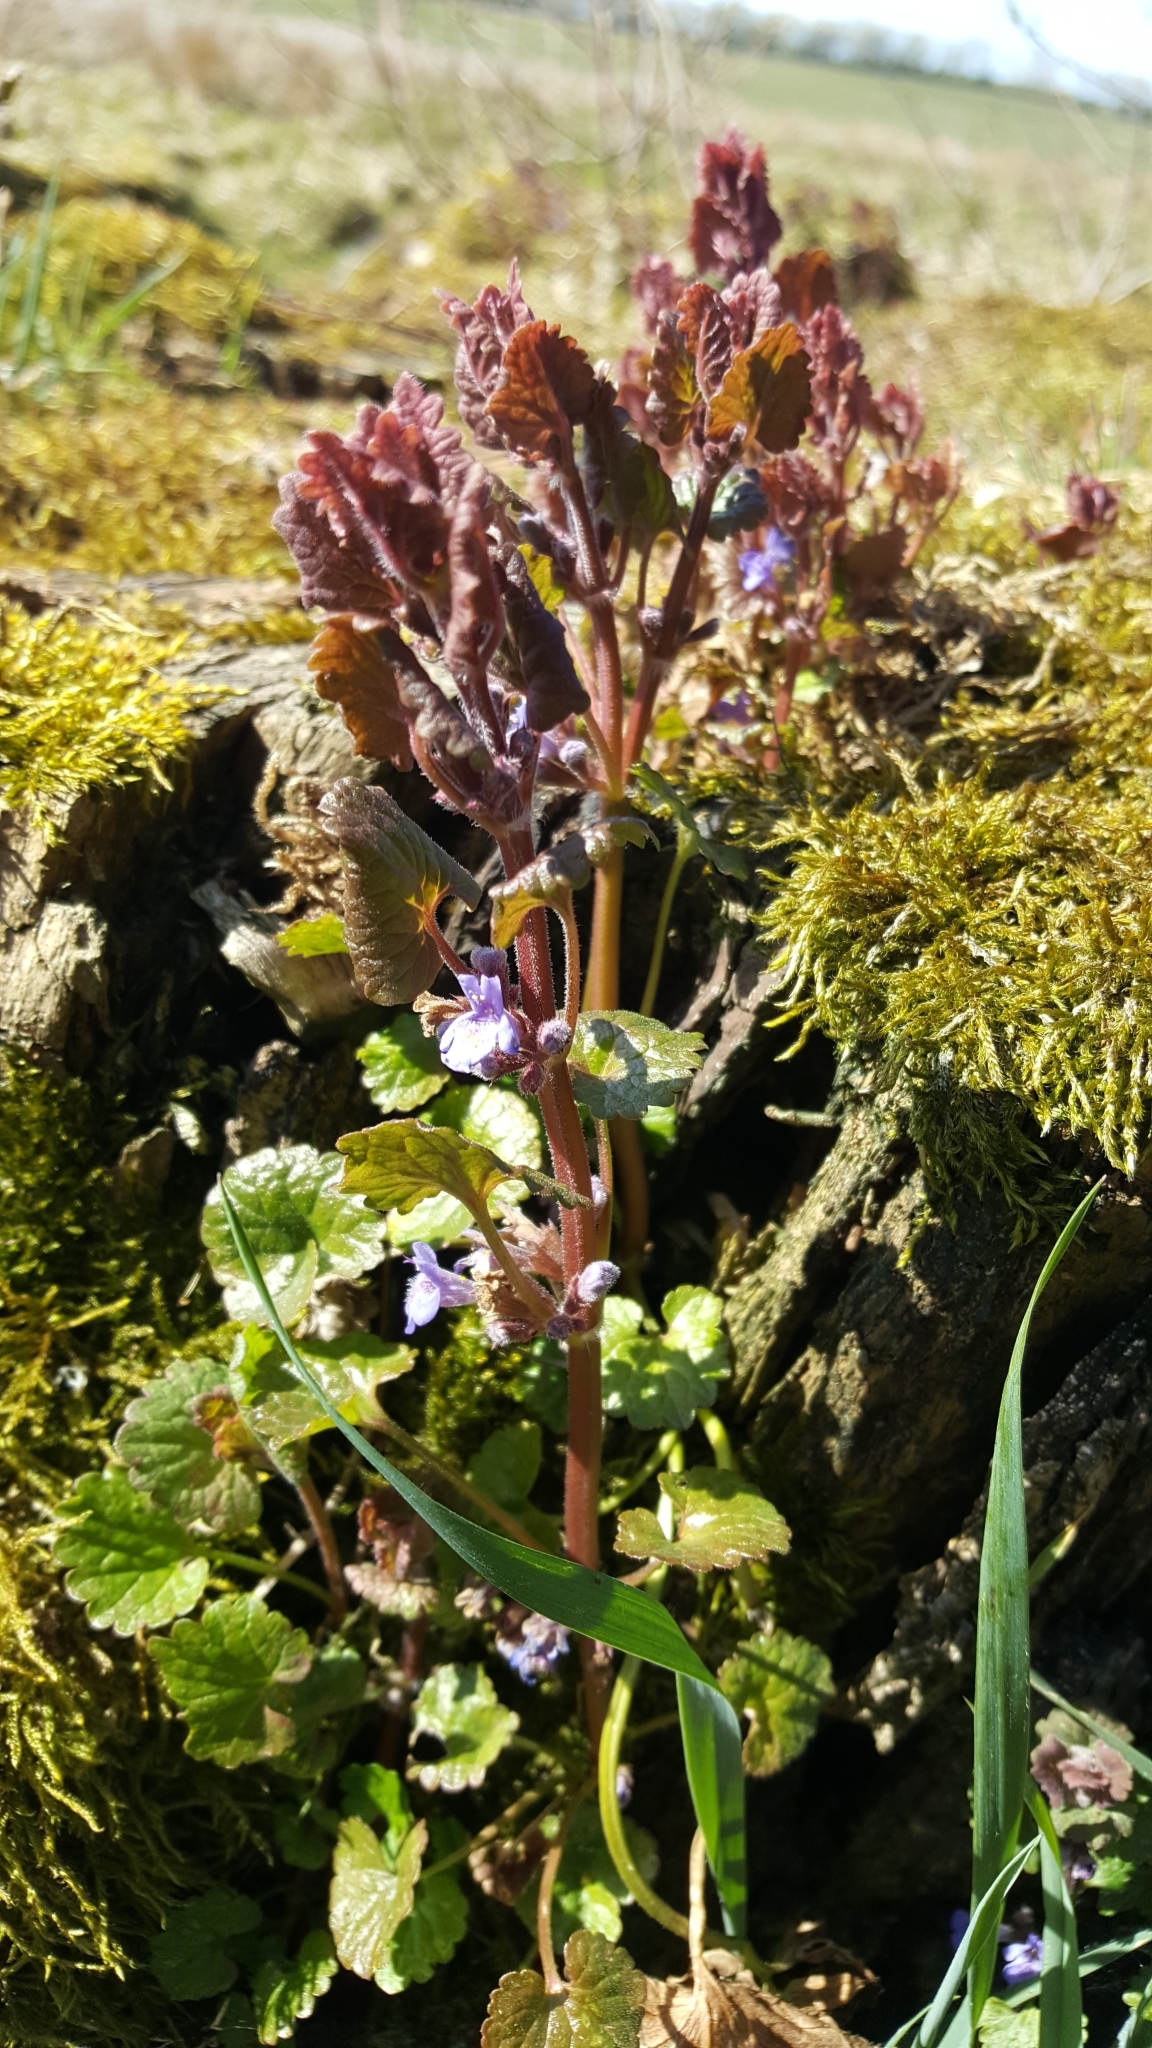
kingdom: Plantae
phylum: Tracheophyta
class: Magnoliopsida
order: Lamiales
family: Lamiaceae
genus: Glechoma
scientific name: Glechoma hederacea
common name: Ground ivy
